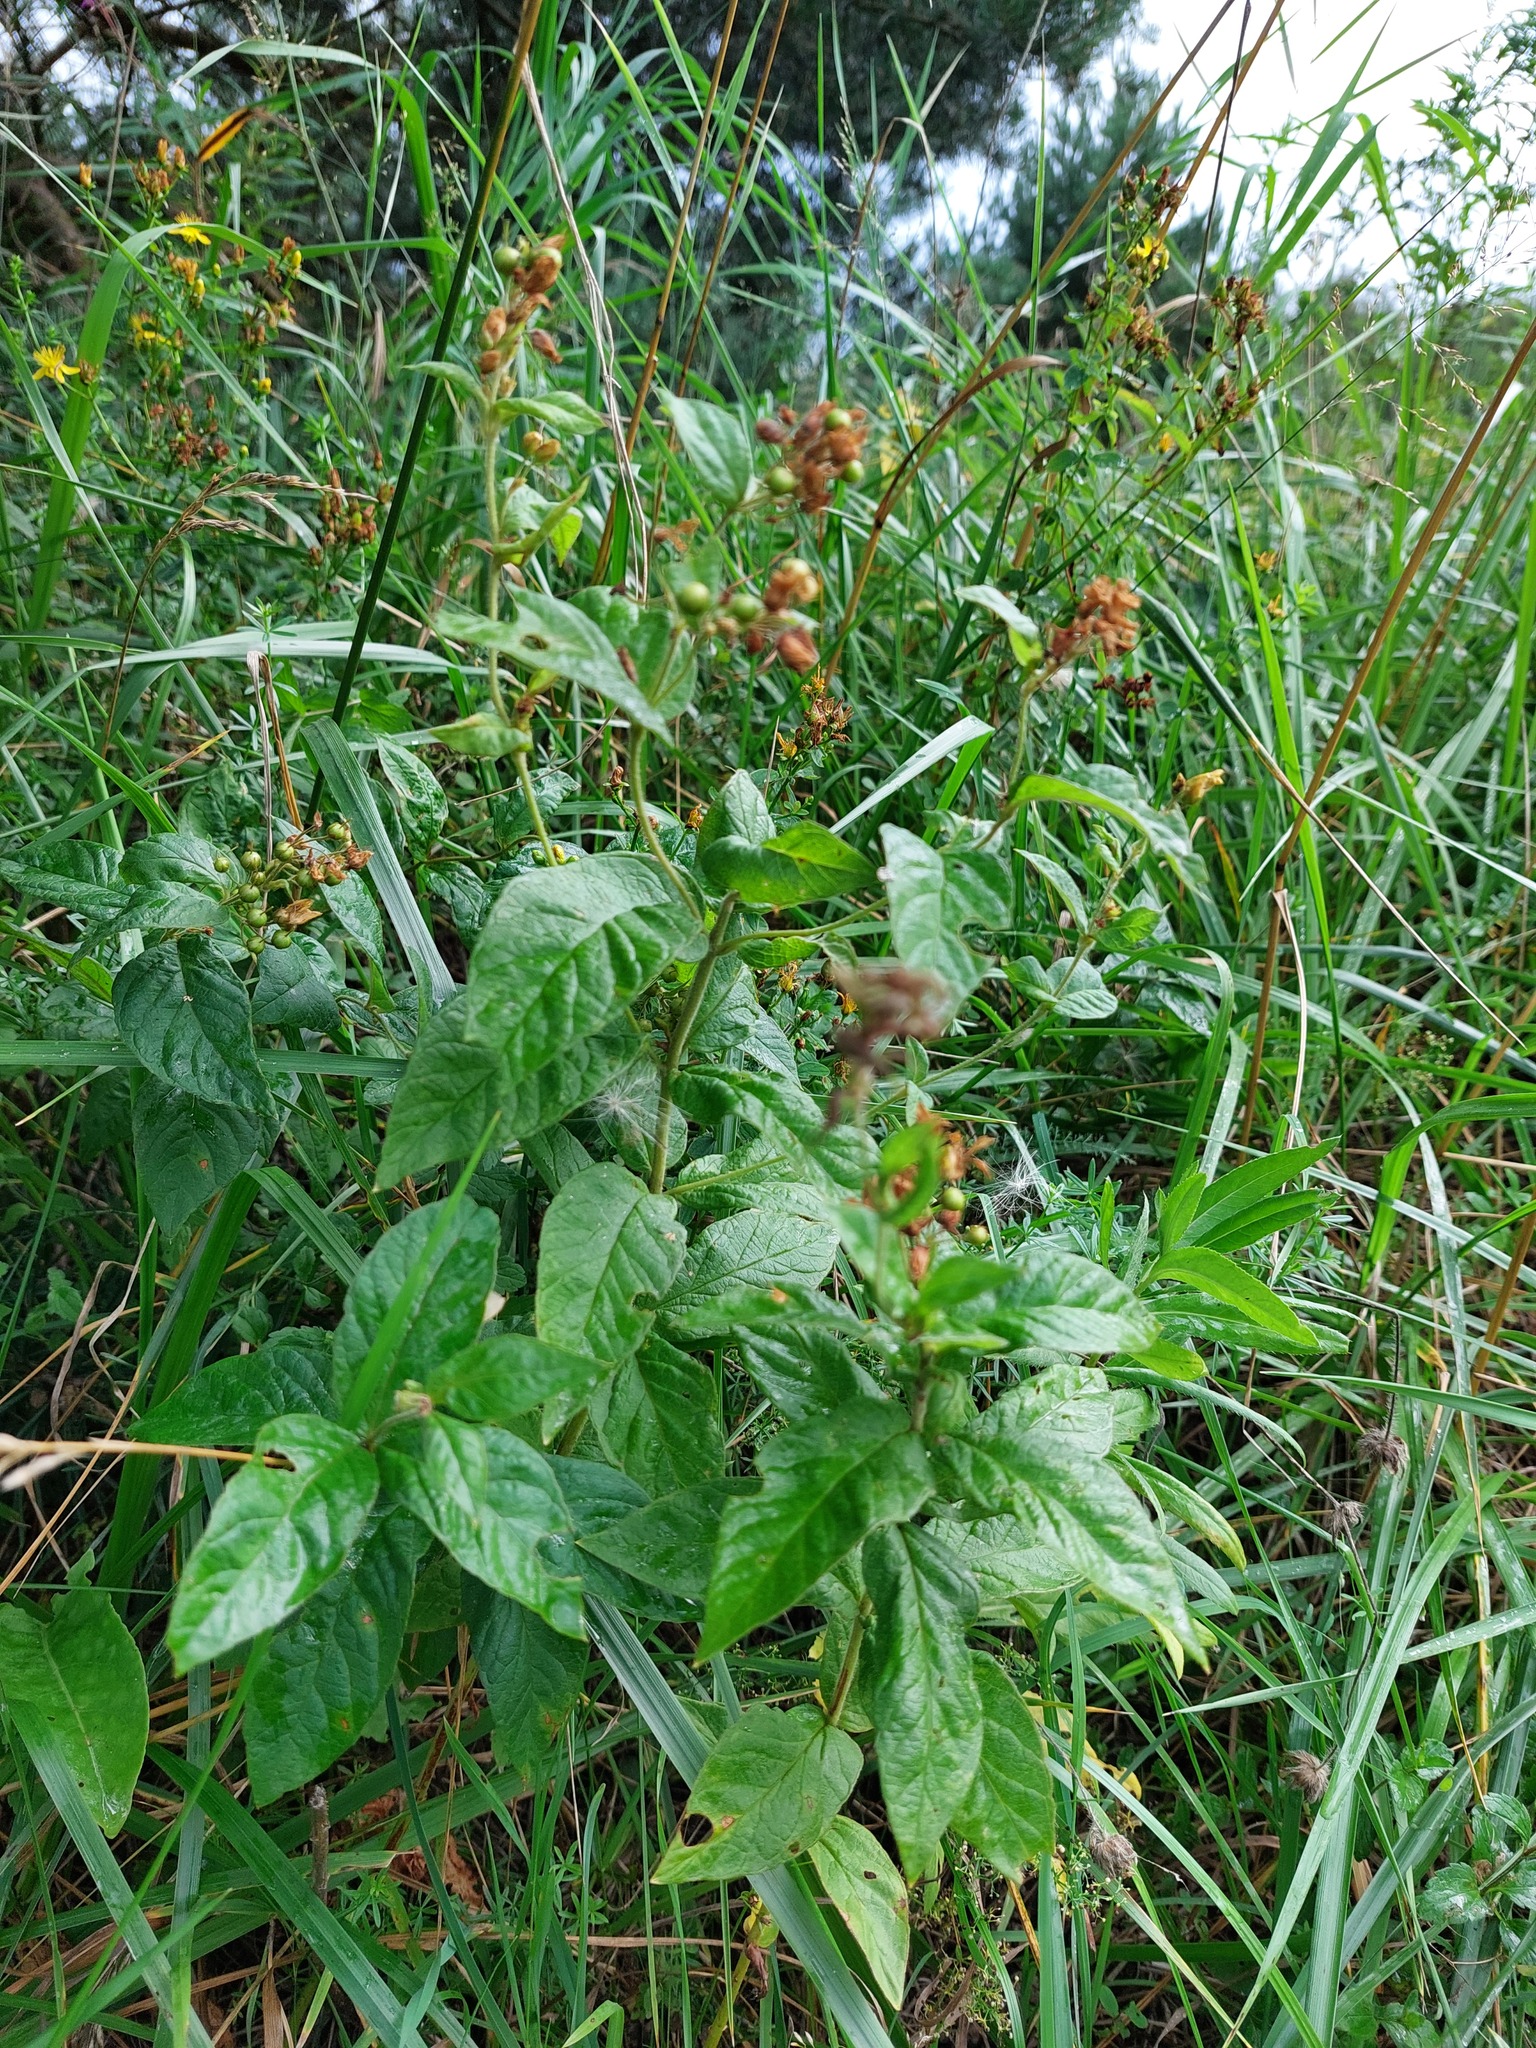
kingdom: Plantae
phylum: Tracheophyta
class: Magnoliopsida
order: Ericales
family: Primulaceae
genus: Lysimachia
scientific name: Lysimachia vulgaris
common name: Yellow loosestrife
